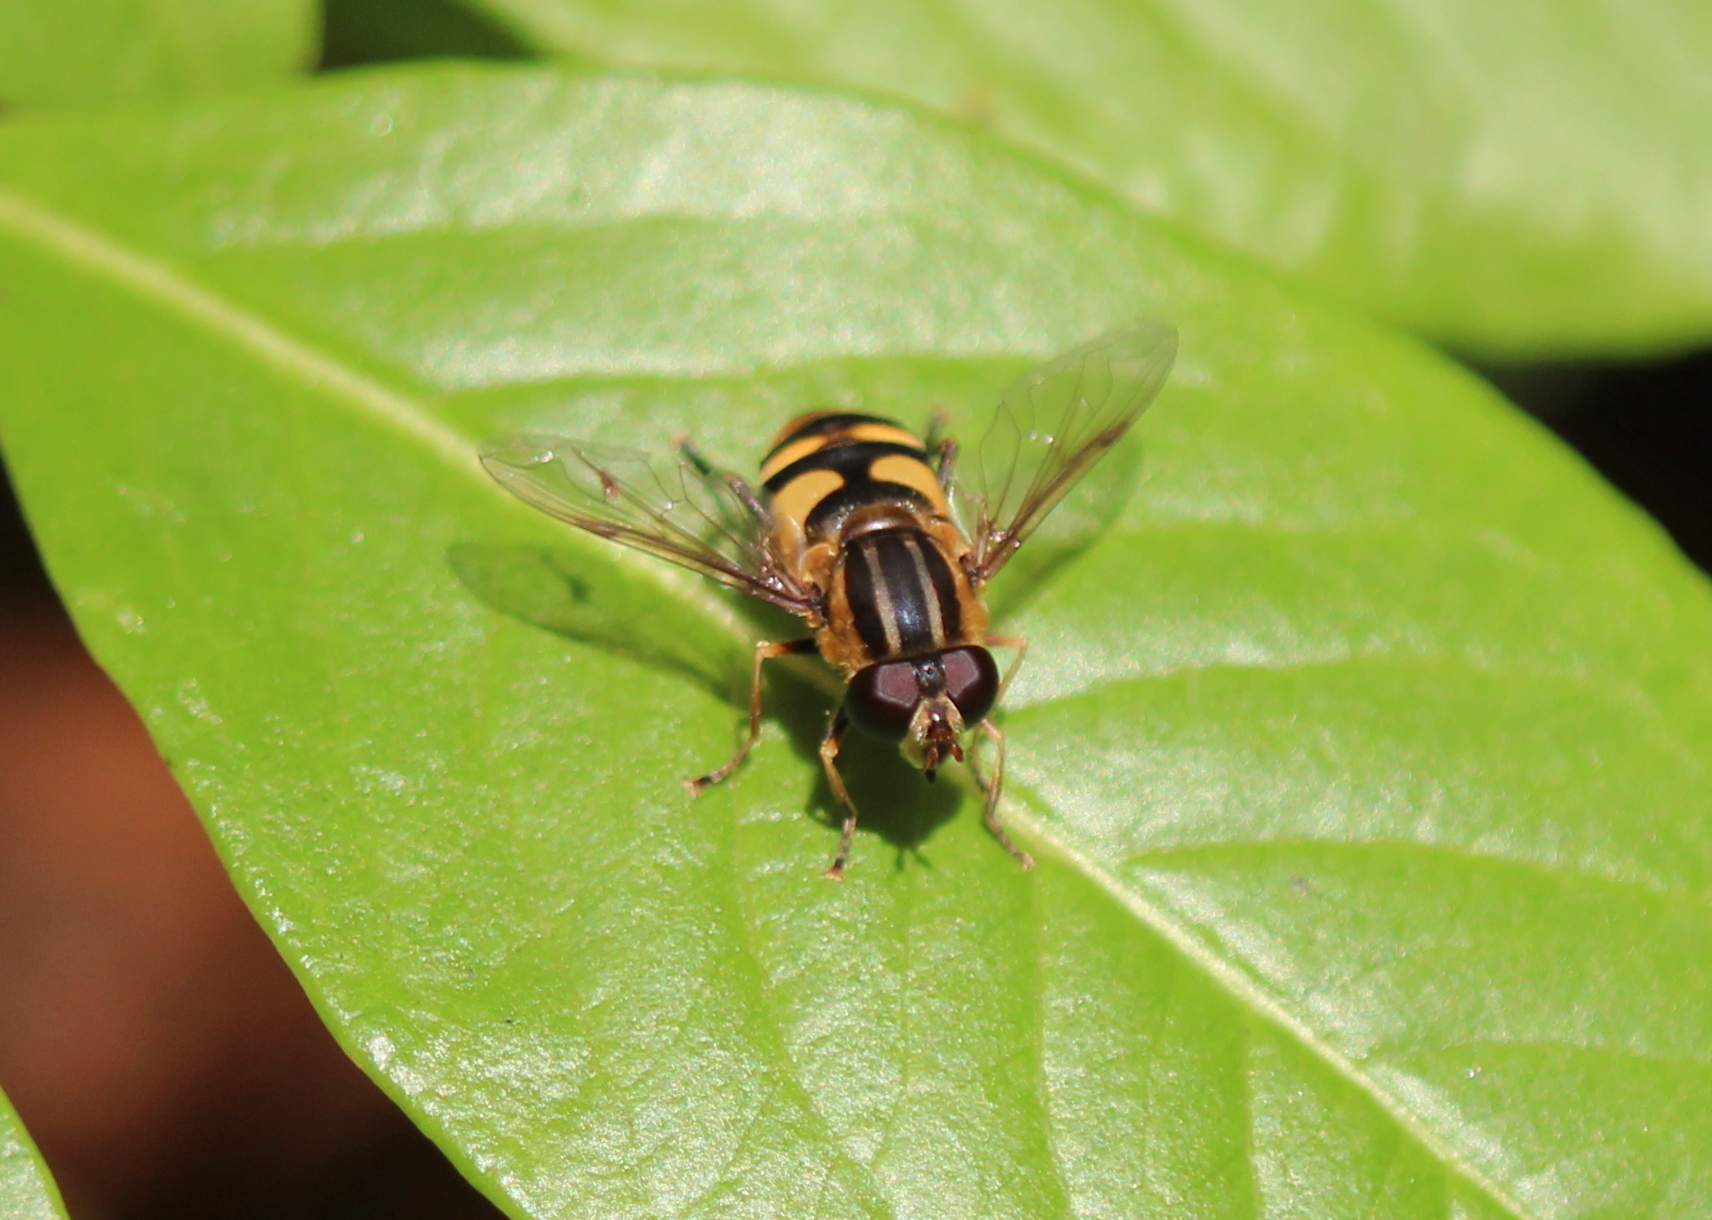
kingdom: Animalia
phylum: Arthropoda
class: Insecta
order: Diptera
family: Syrphidae
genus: Helophilus
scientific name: Helophilus fasciatus
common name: Narrow-headed marsh fly
